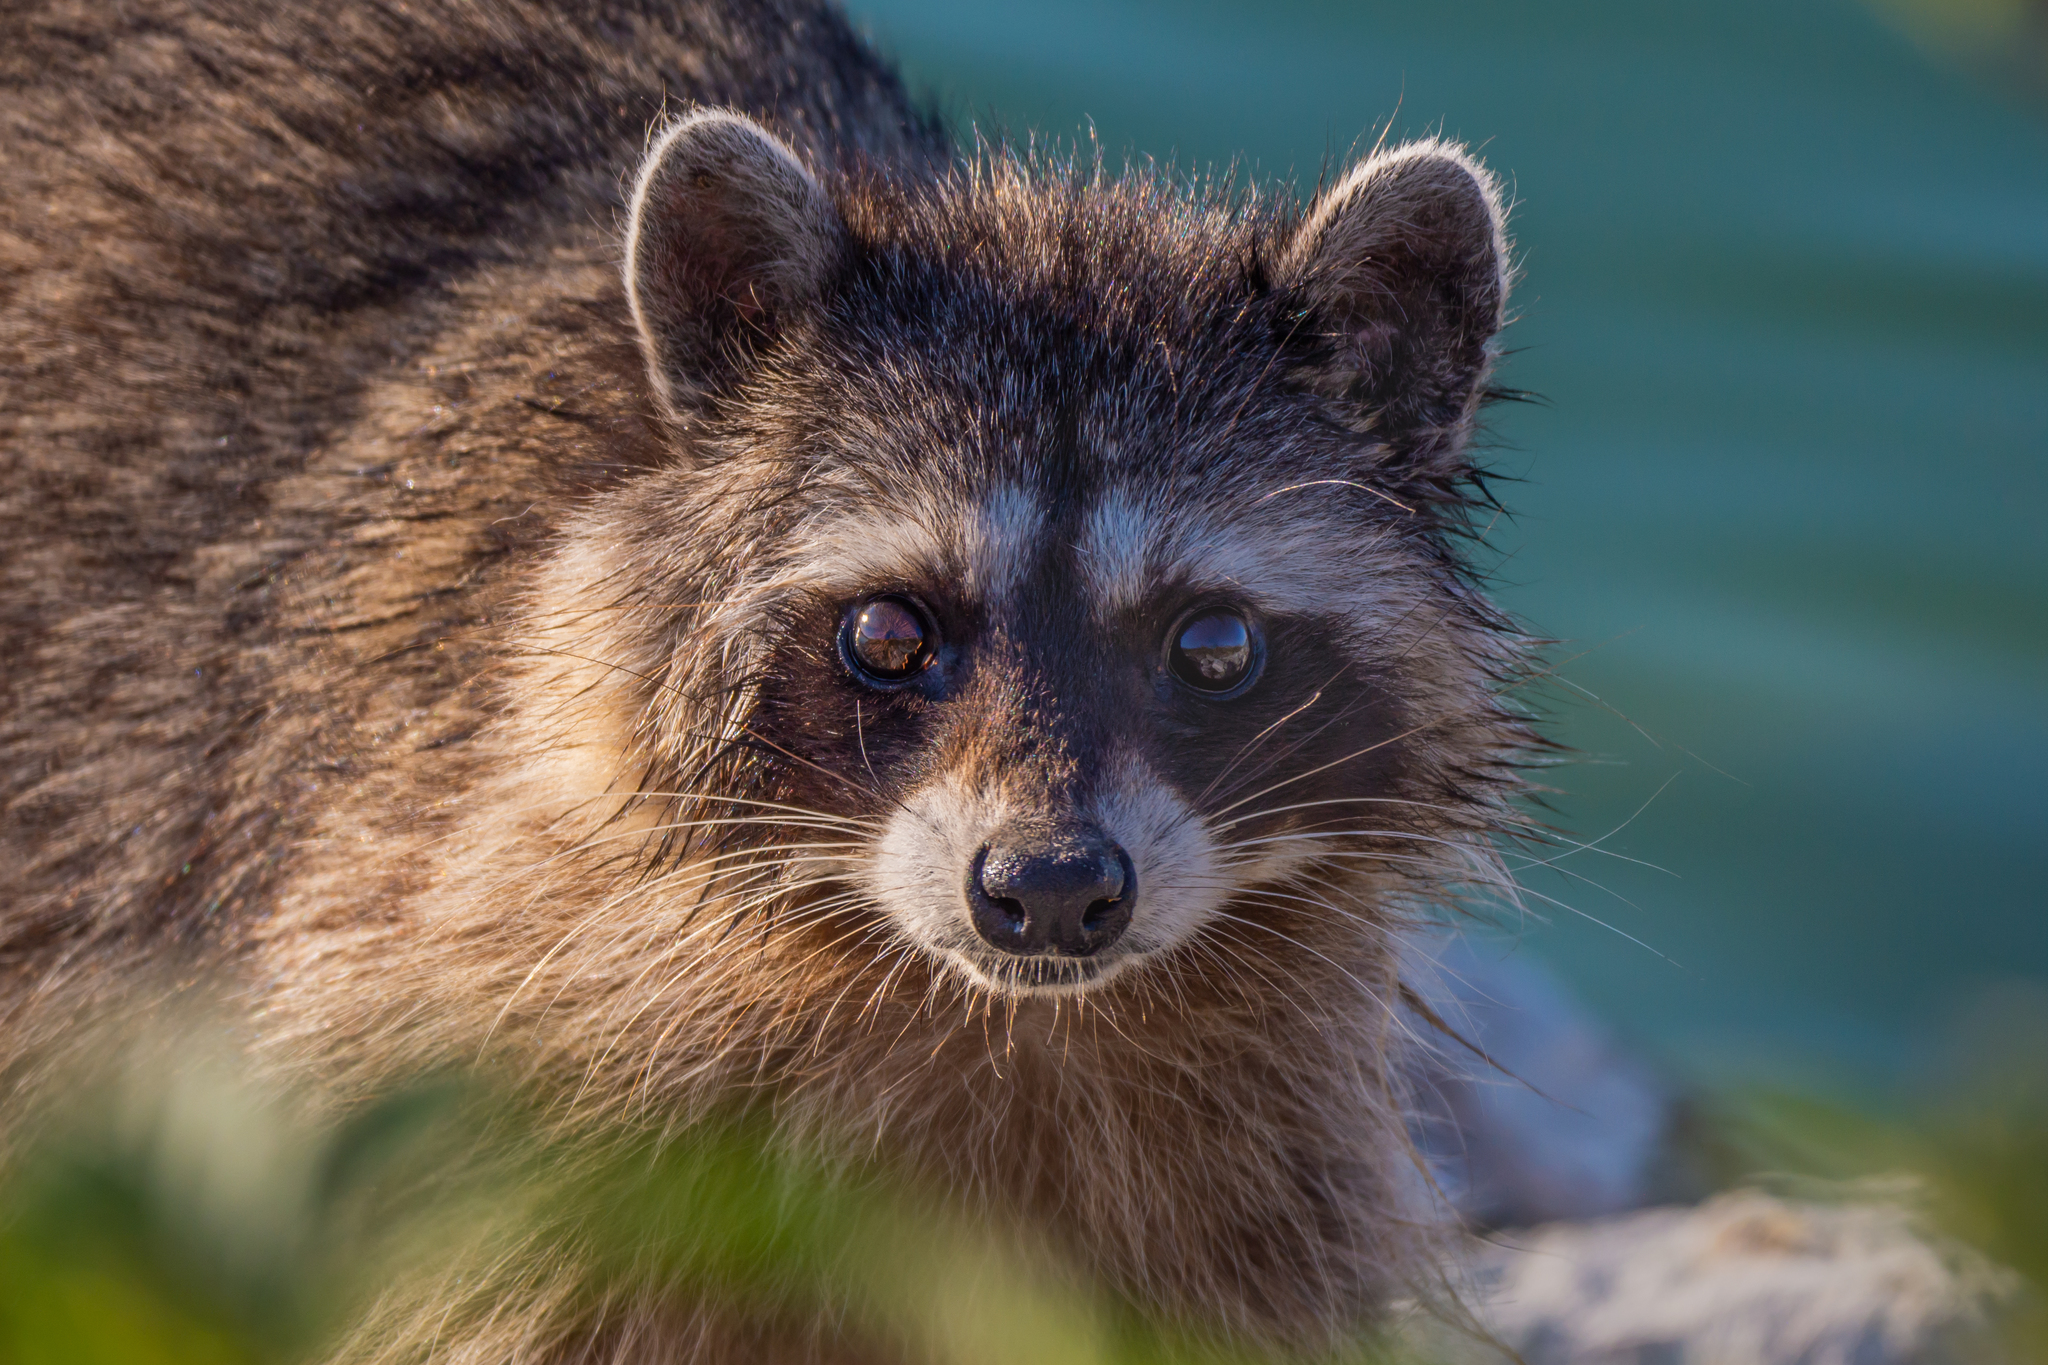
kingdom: Animalia
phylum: Chordata
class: Mammalia
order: Carnivora
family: Procyonidae
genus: Procyon
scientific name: Procyon lotor
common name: Raccoon
